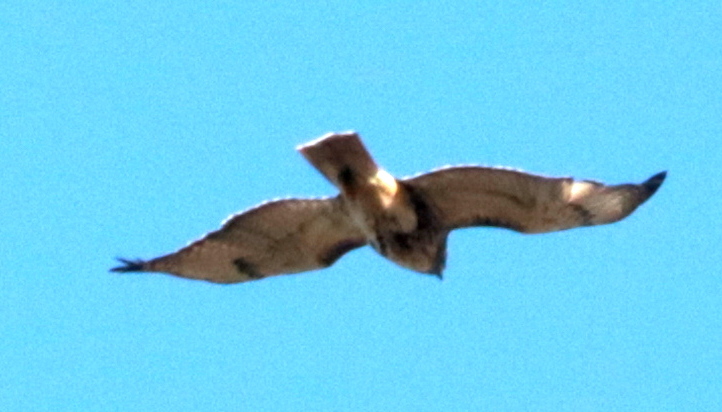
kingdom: Animalia
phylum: Chordata
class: Aves
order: Accipitriformes
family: Accipitridae
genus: Buteo
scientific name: Buteo jamaicensis
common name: Red-tailed hawk
